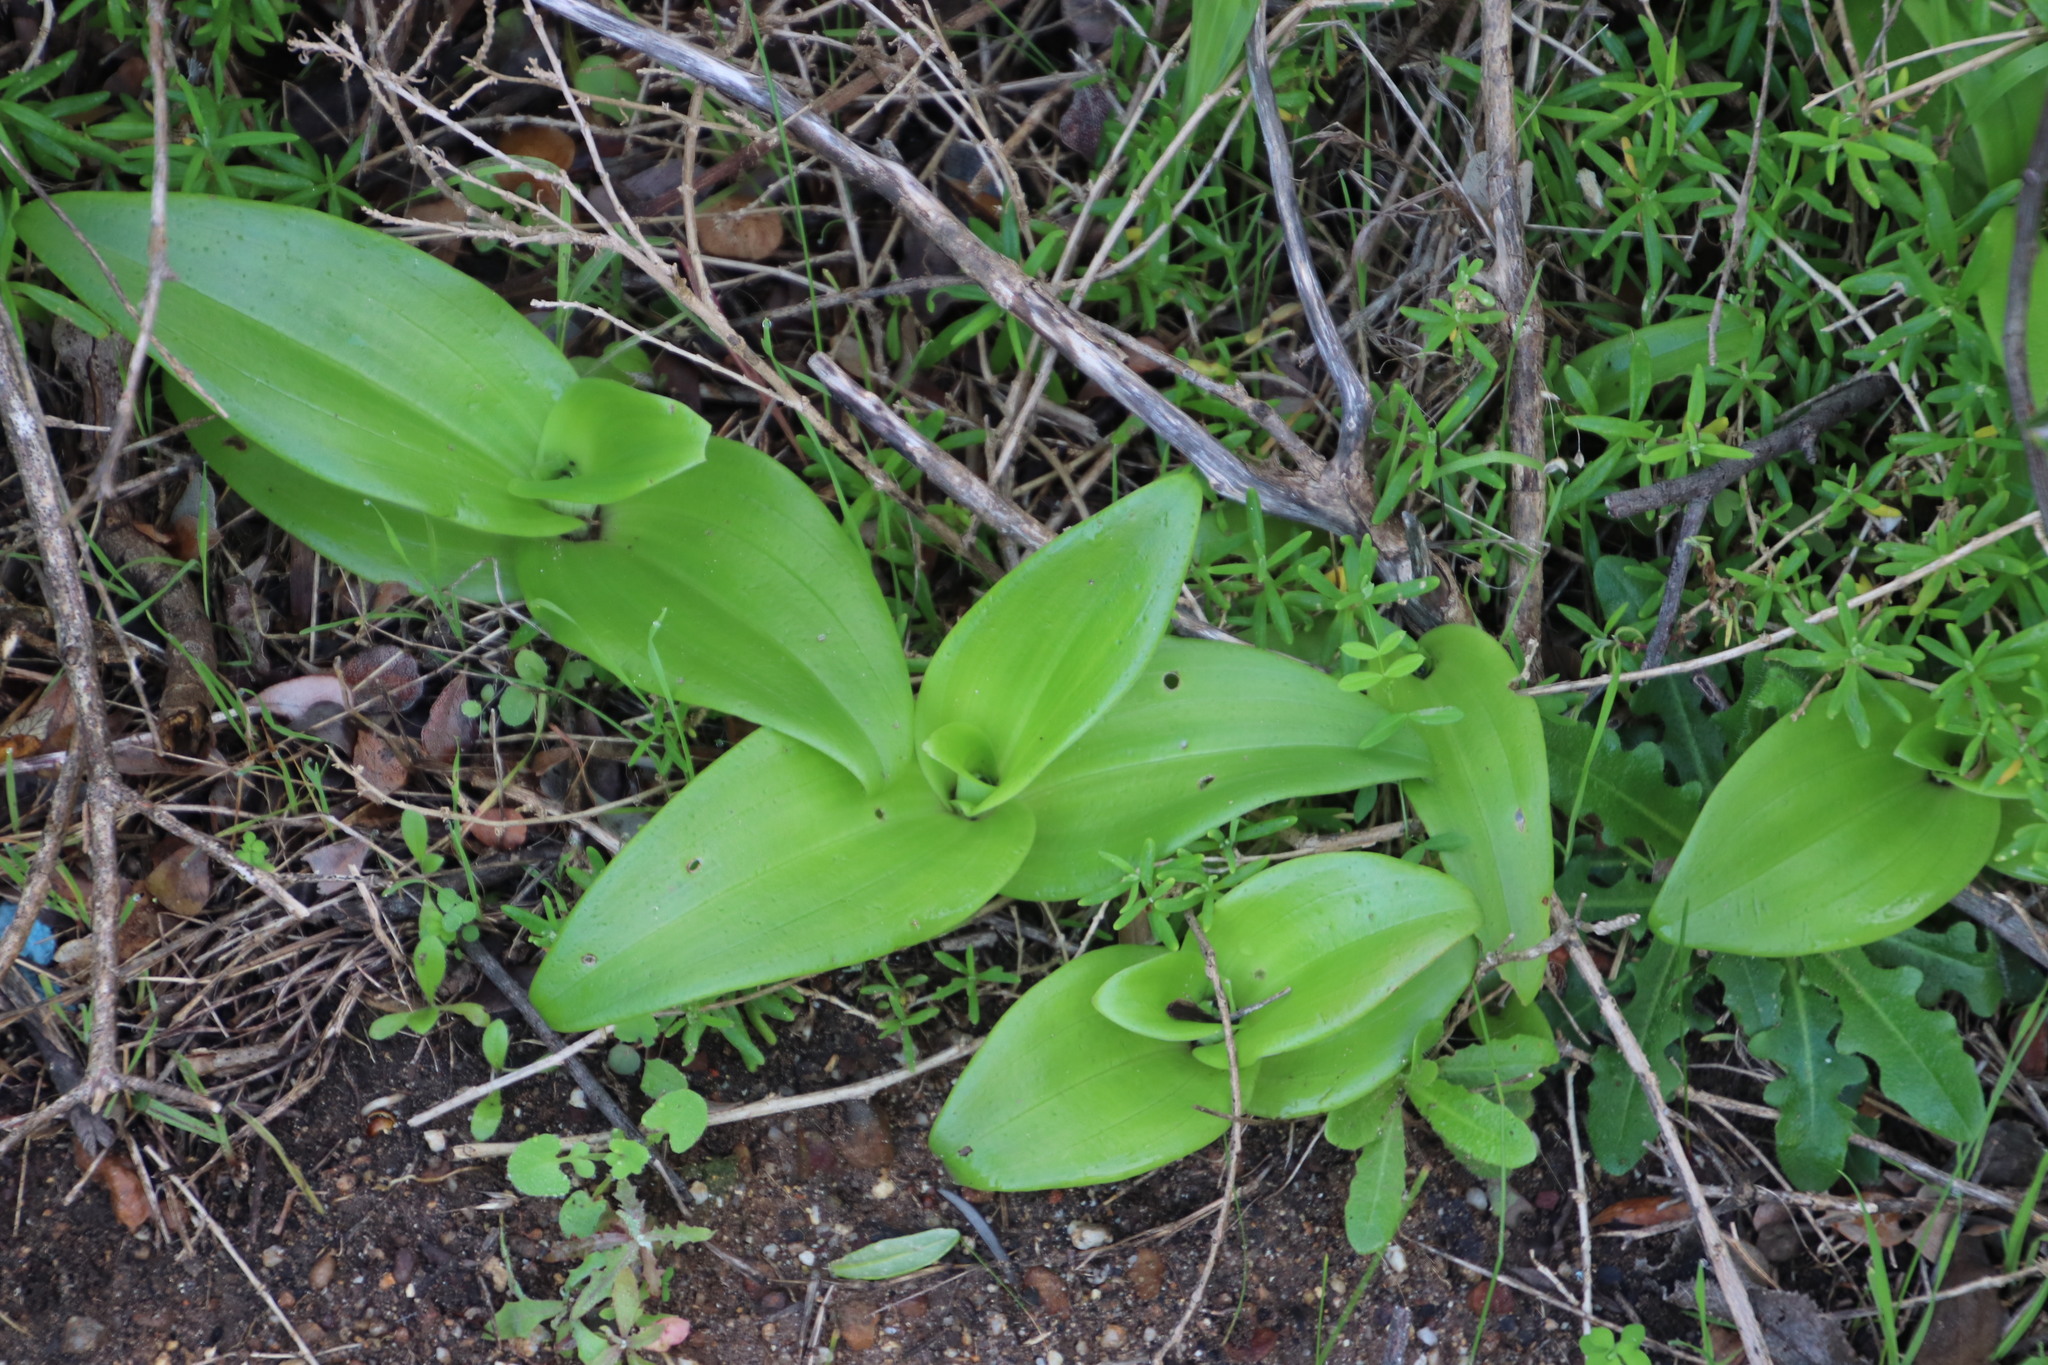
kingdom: Plantae
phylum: Tracheophyta
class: Liliopsida
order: Asparagales
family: Orchidaceae
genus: Satyrium
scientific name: Satyrium odorum
